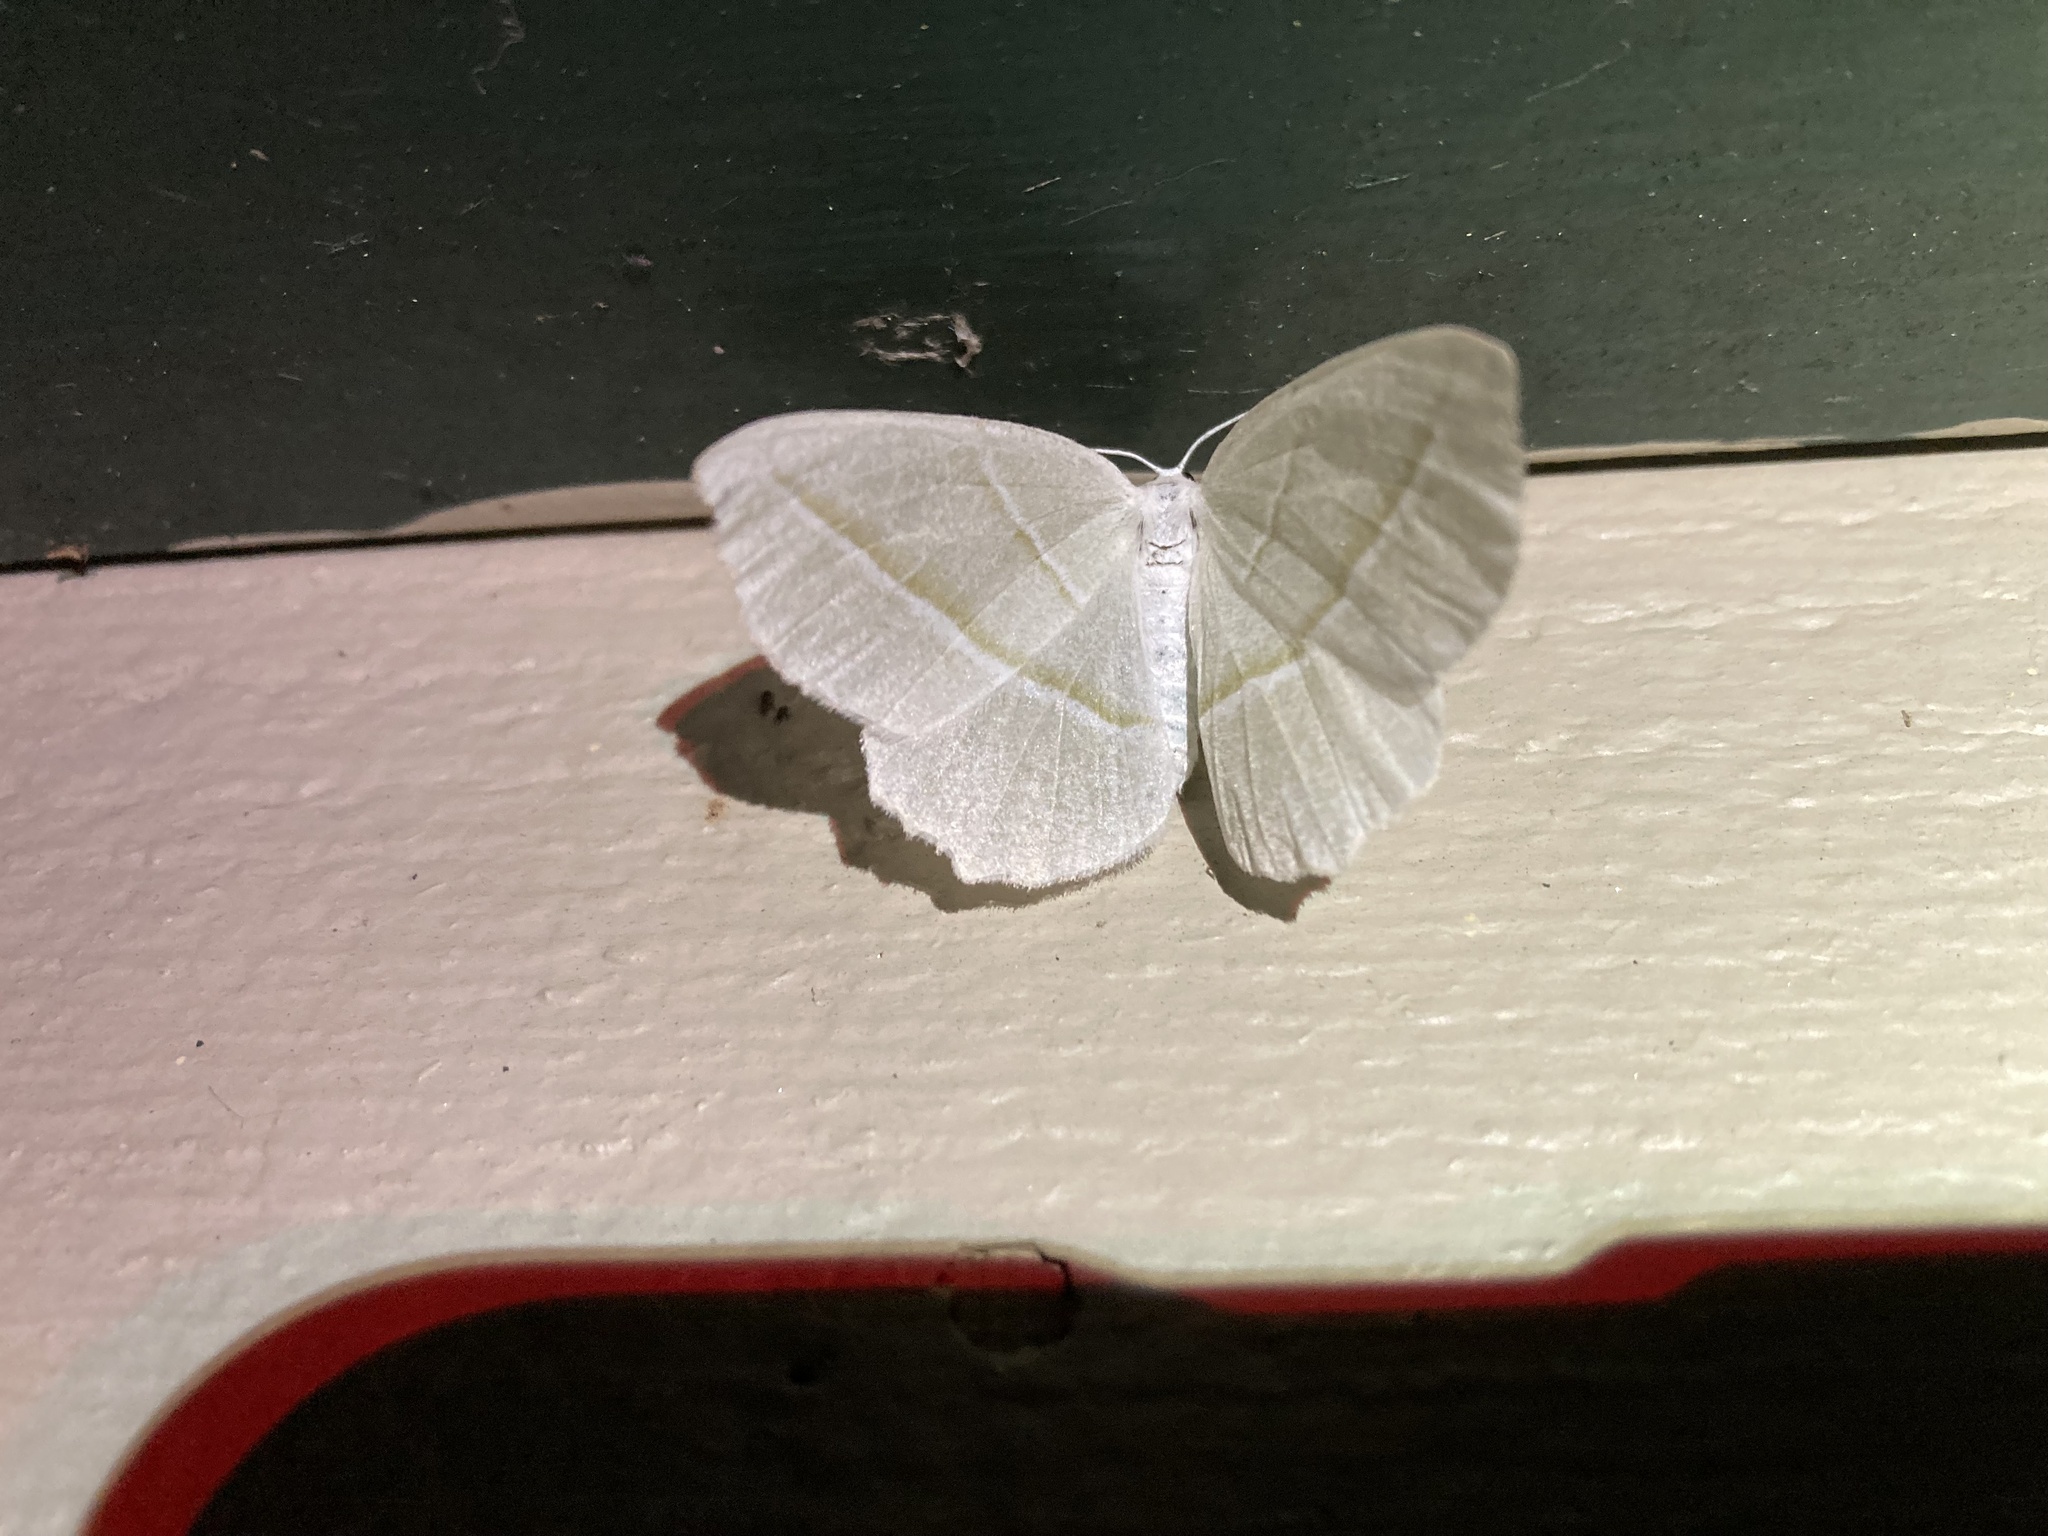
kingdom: Animalia
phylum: Arthropoda
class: Insecta
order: Lepidoptera
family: Geometridae
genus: Campaea
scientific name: Campaea perlata
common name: Fringed looper
